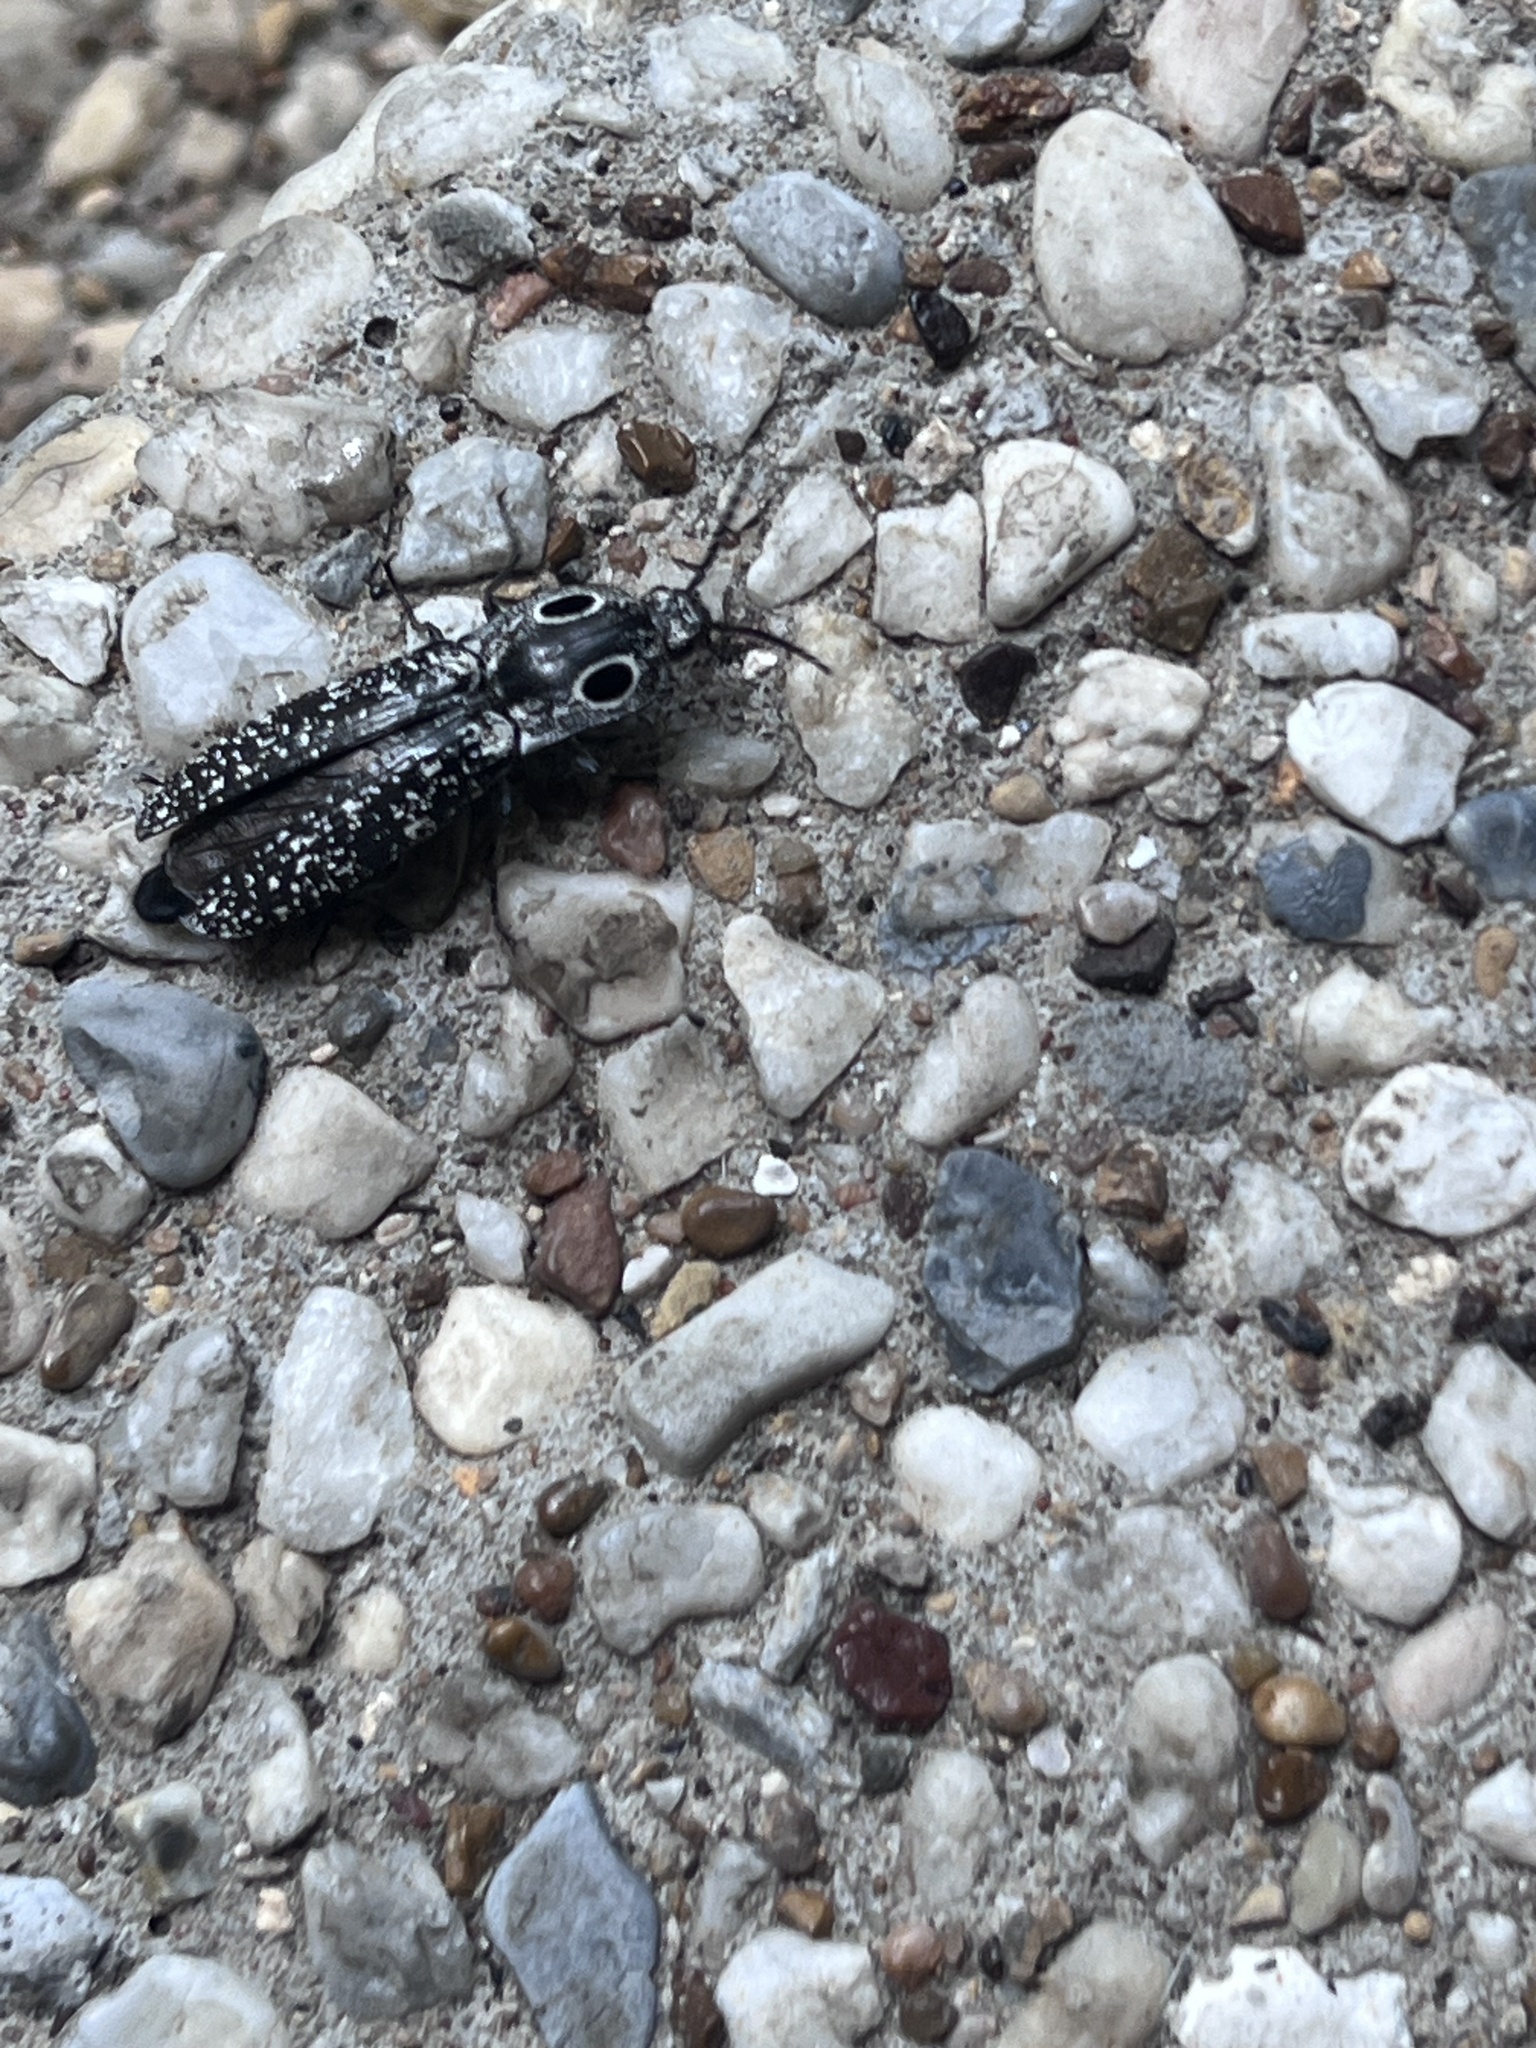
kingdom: Animalia
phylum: Arthropoda
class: Insecta
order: Coleoptera
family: Elateridae
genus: Alaus
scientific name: Alaus oculatus
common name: Eastern eyed click beetle
